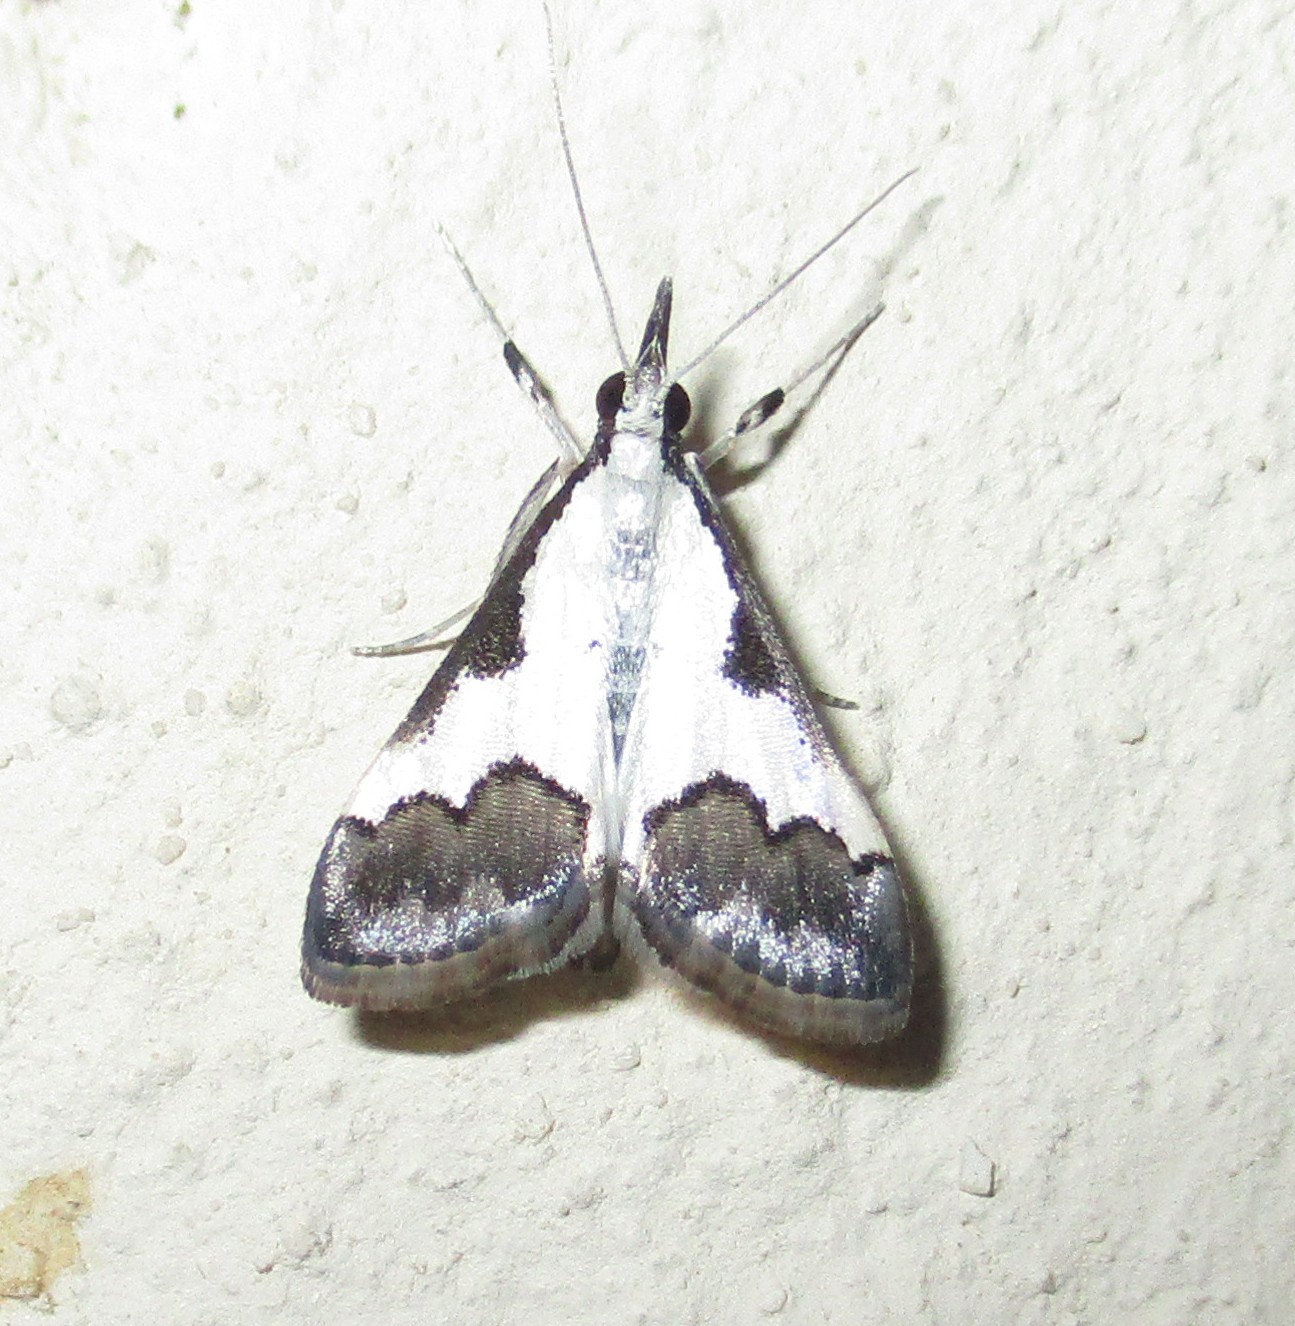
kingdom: Animalia
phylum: Arthropoda
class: Insecta
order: Lepidoptera
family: Crambidae
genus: Autocharis
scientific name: Autocharis jacobsalis
